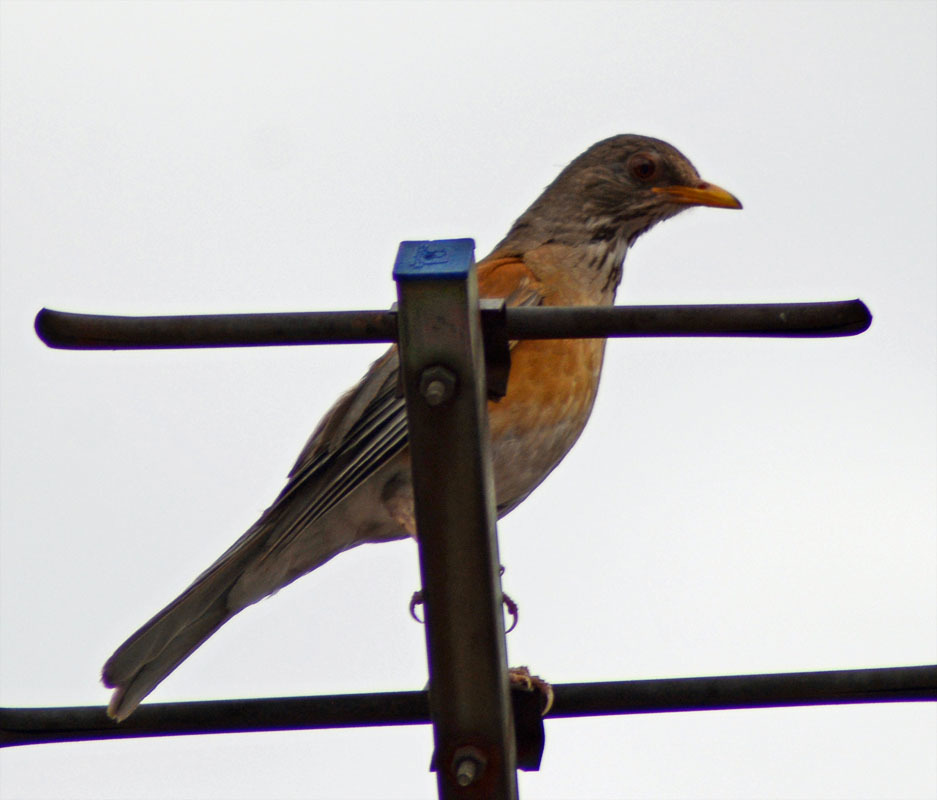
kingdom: Animalia
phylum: Chordata
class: Aves
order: Passeriformes
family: Turdidae
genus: Turdus
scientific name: Turdus rufopalliatus
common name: Rufous-backed robin
